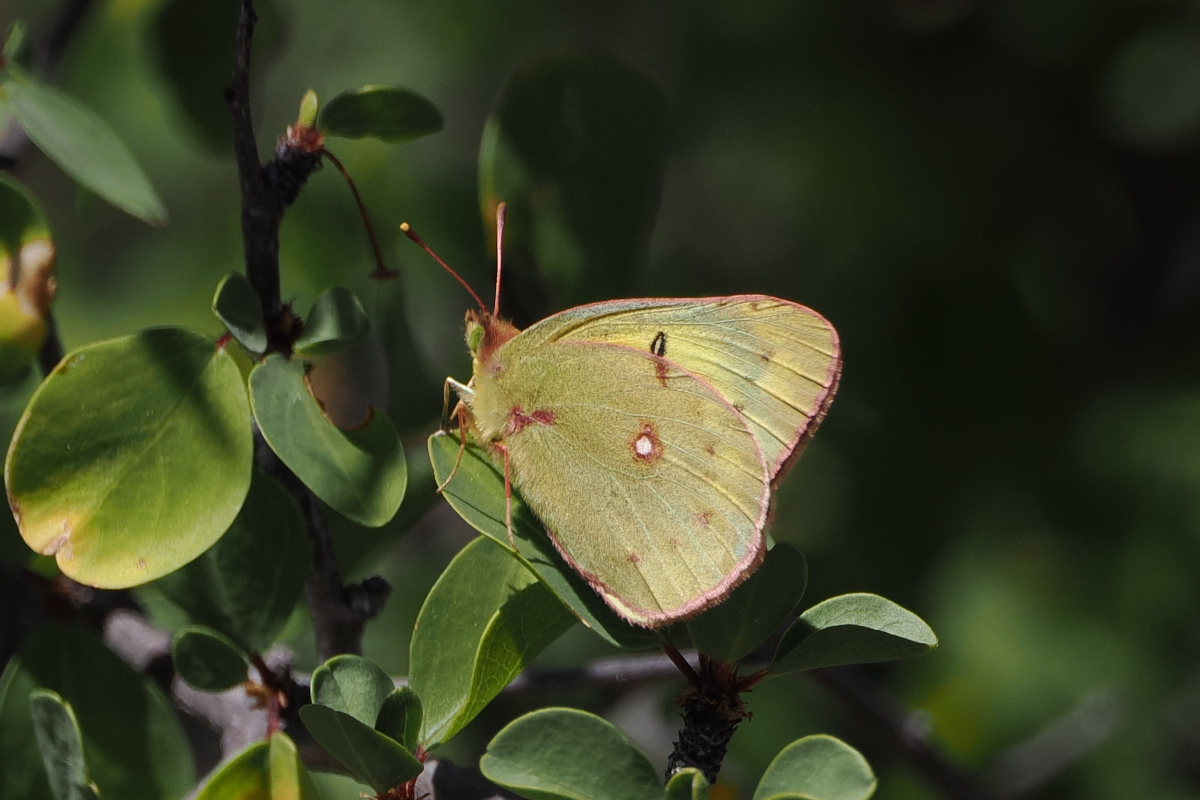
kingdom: Animalia
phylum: Arthropoda
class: Insecta
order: Lepidoptera
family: Pieridae
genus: Colias
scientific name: Colias eurytheme
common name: Alfalfa butterfly
